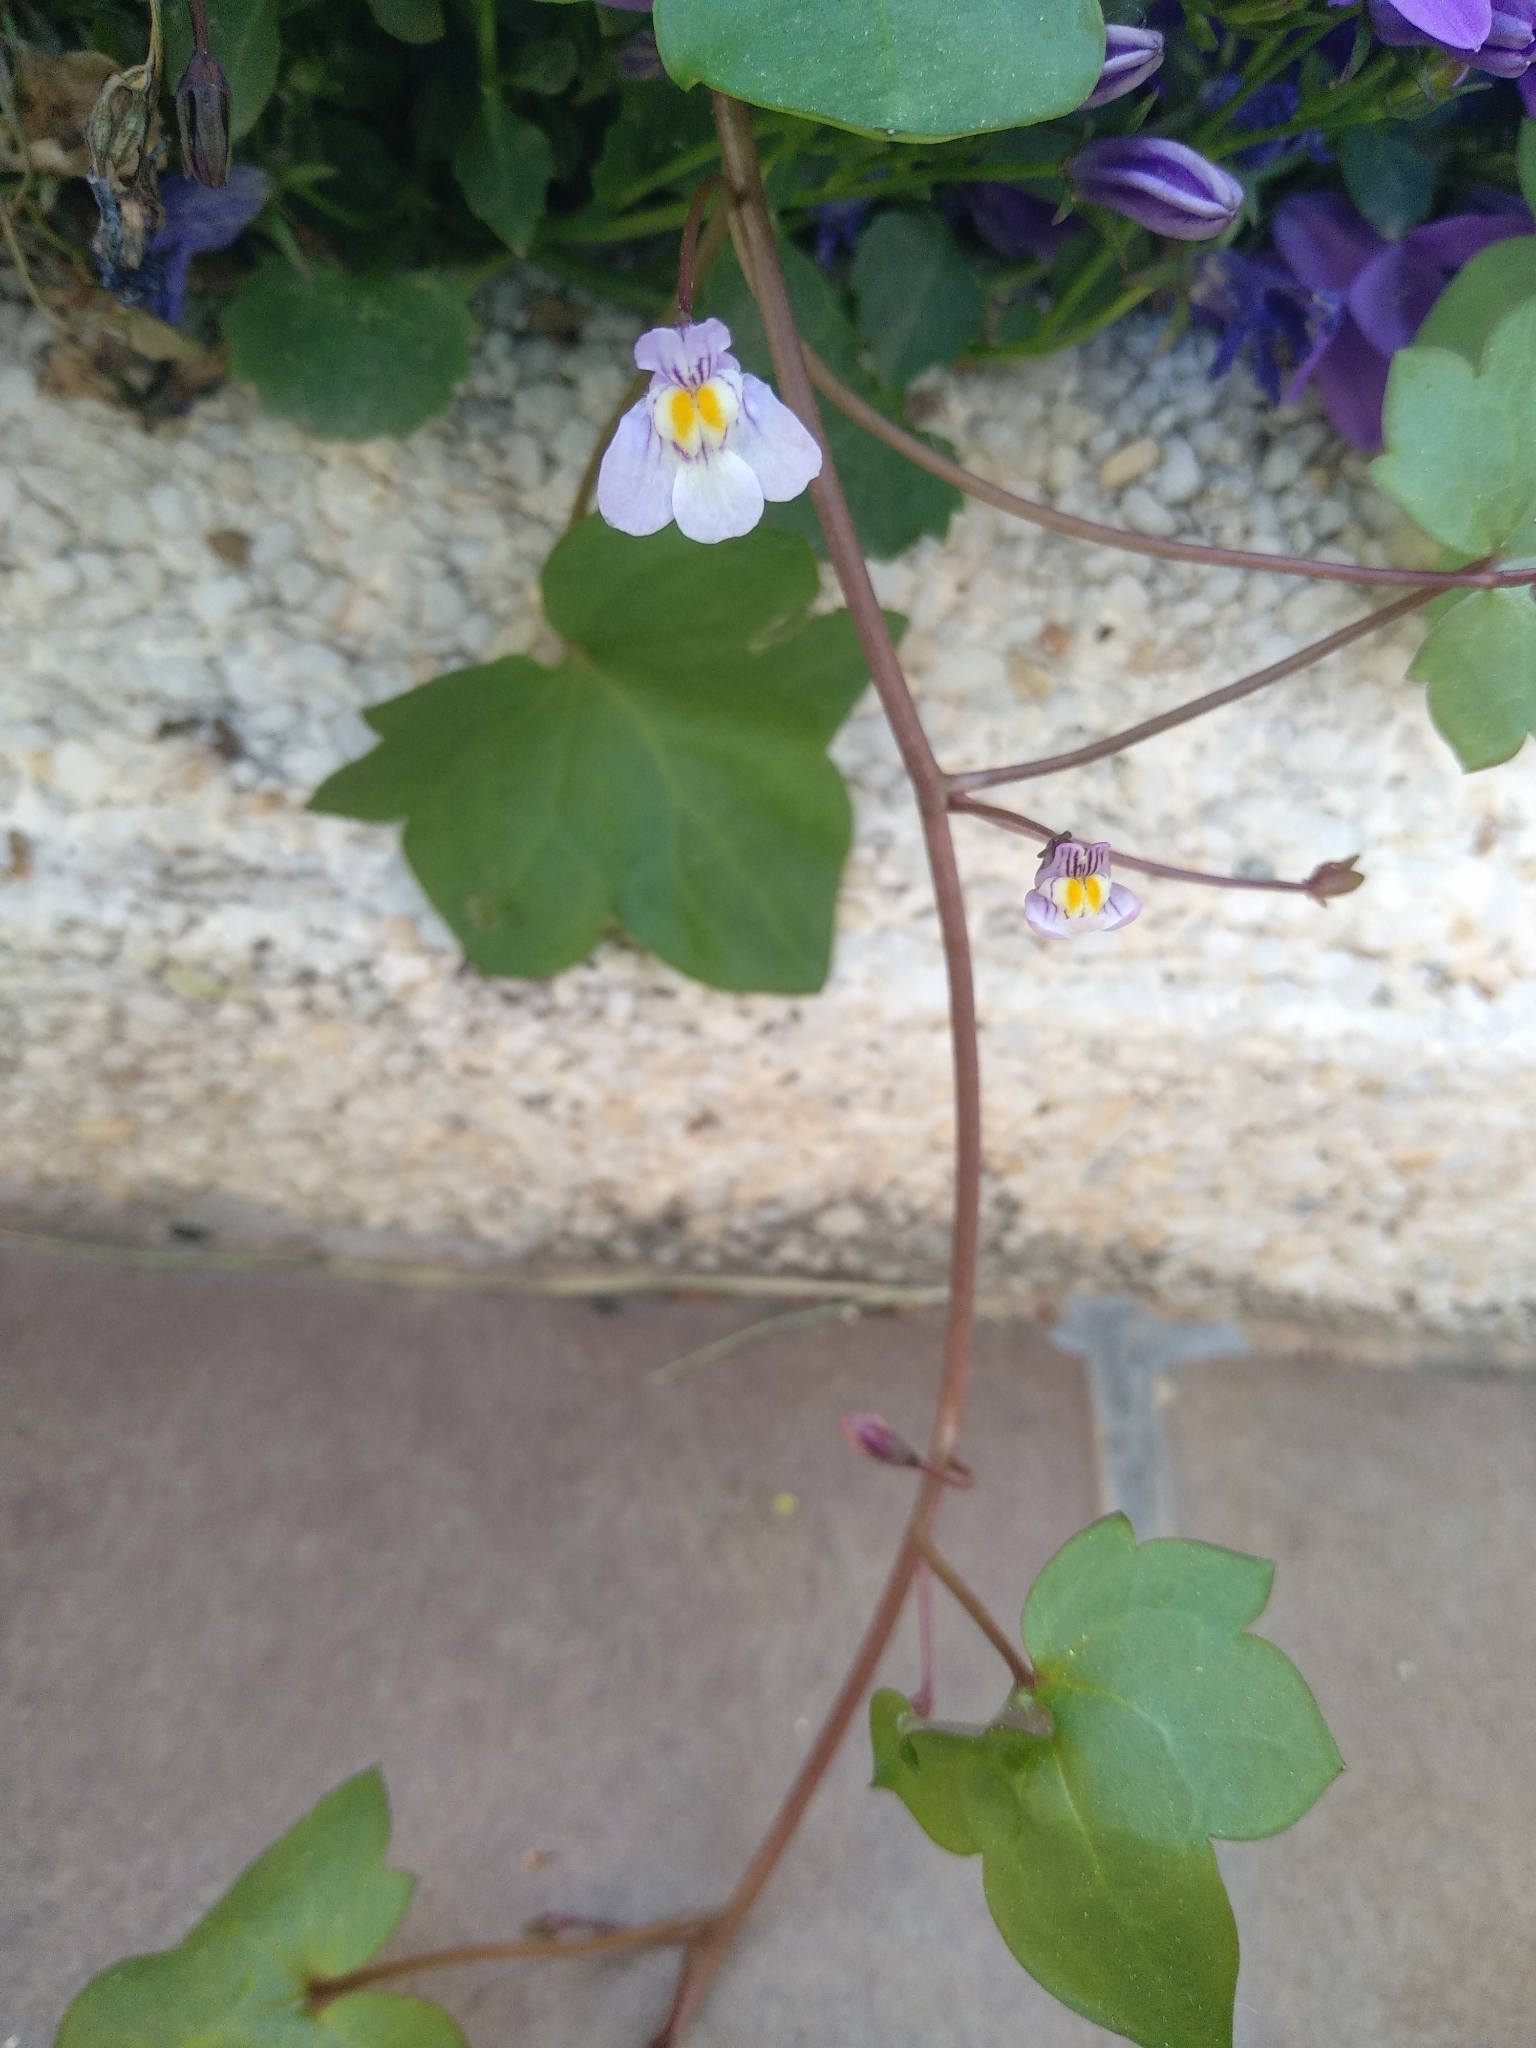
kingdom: Plantae
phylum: Tracheophyta
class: Magnoliopsida
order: Lamiales
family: Plantaginaceae
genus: Cymbalaria
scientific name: Cymbalaria muralis
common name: Ivy-leaved toadflax
